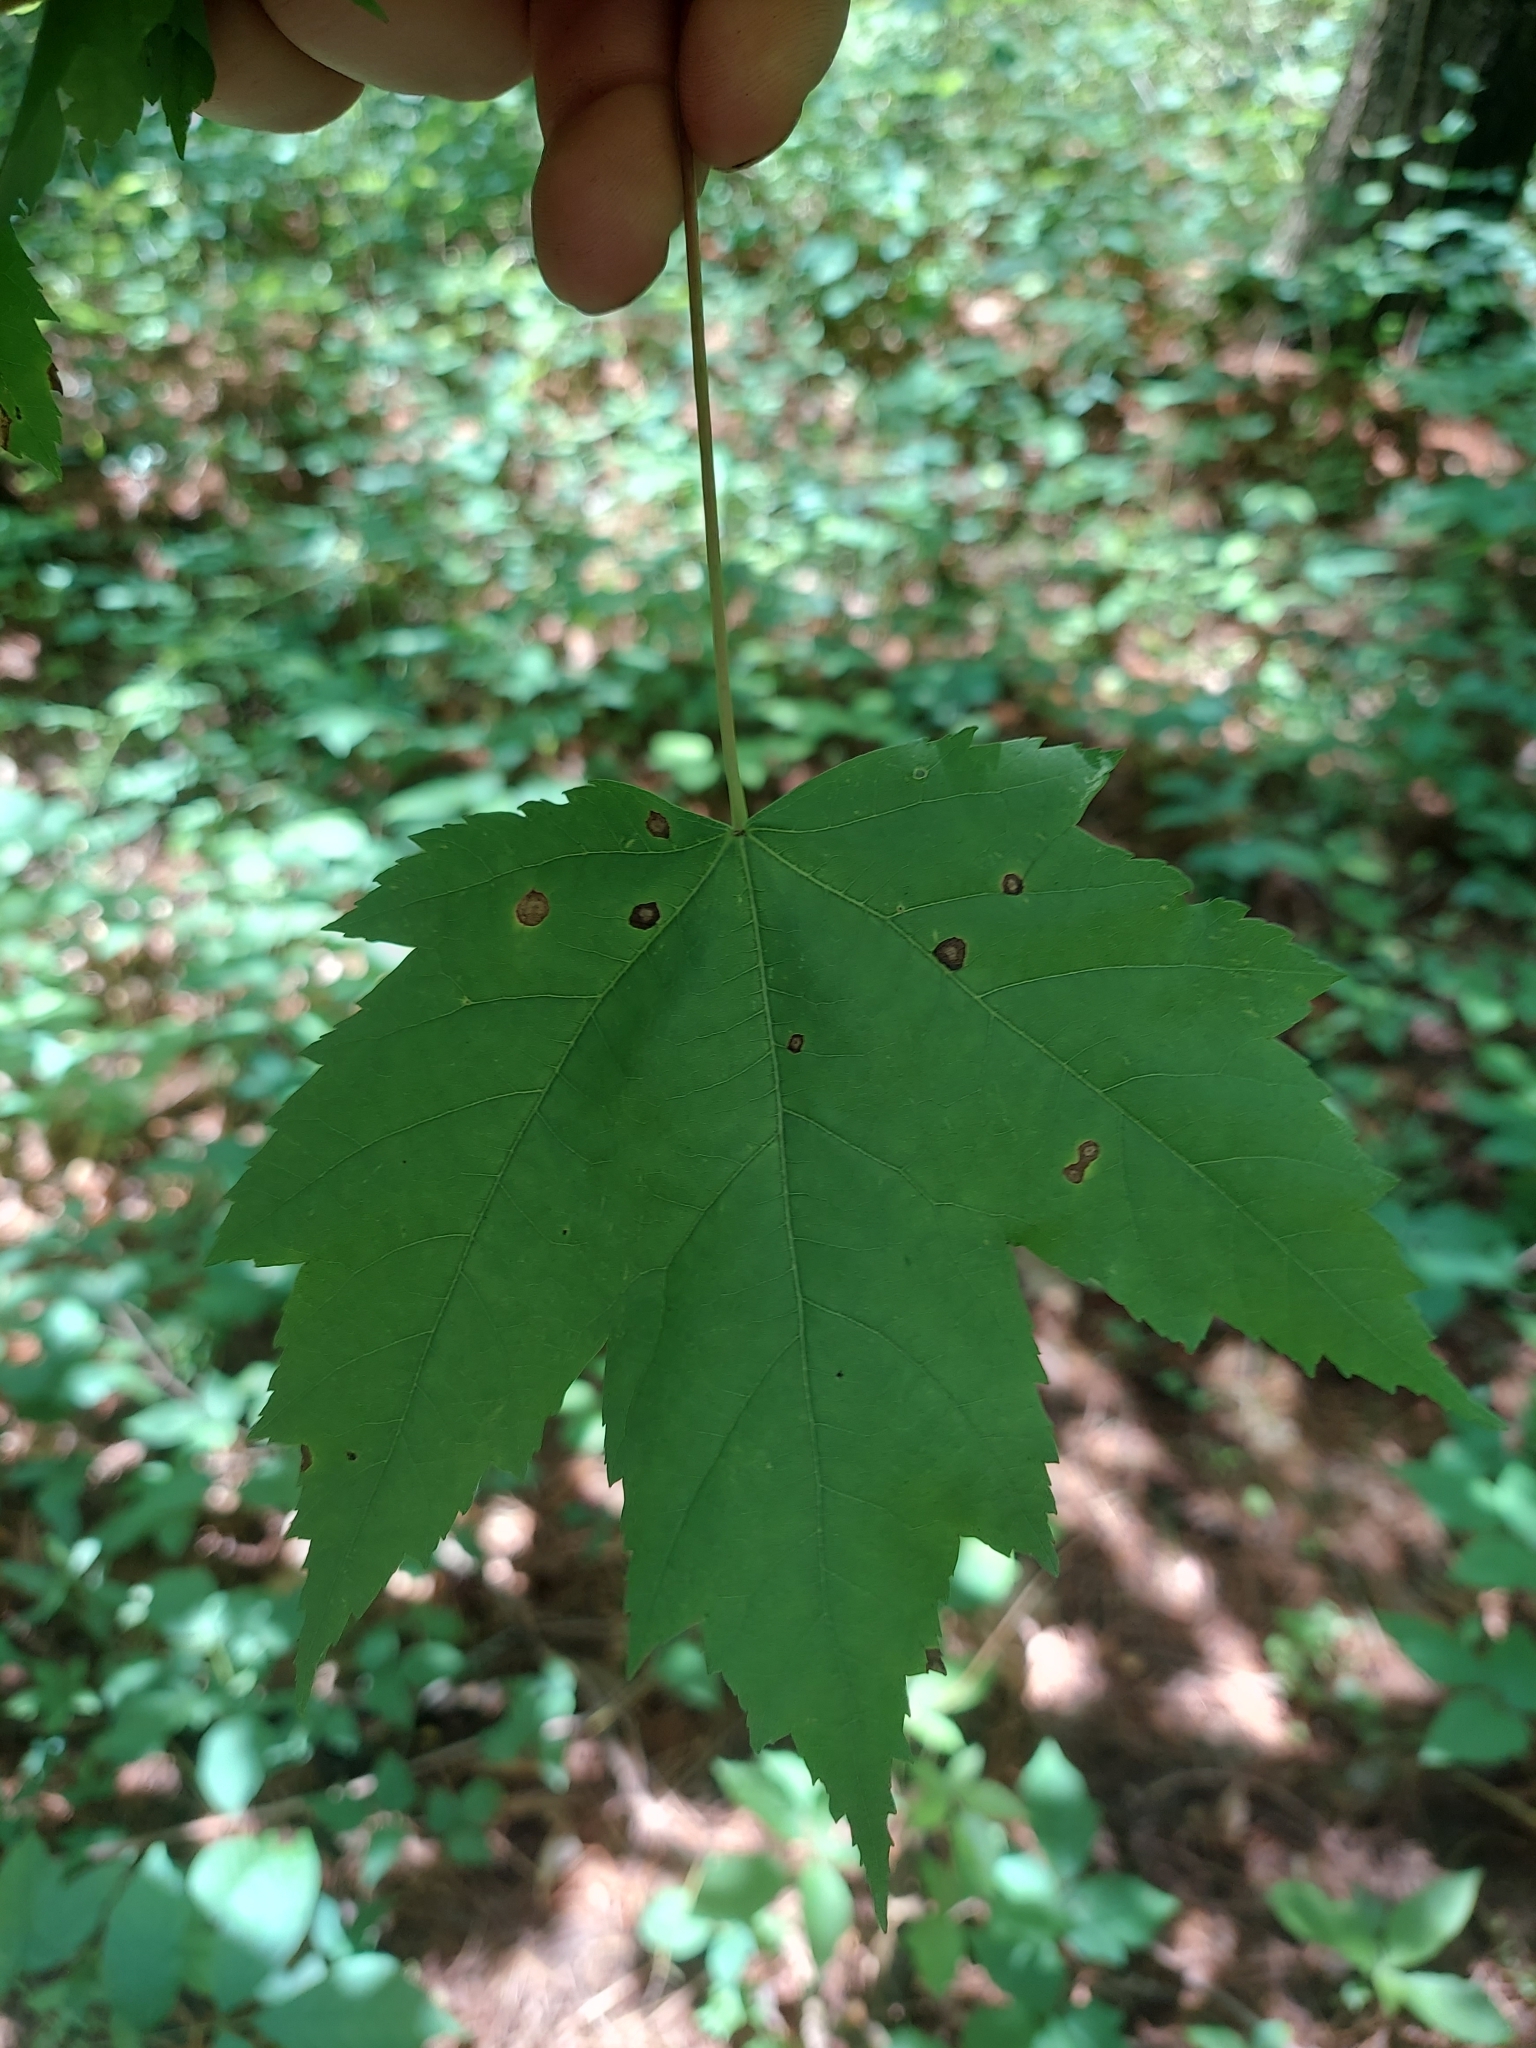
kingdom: Plantae
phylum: Tracheophyta
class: Magnoliopsida
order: Sapindales
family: Sapindaceae
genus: Acer
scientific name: Acer rubrum
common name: Red maple
